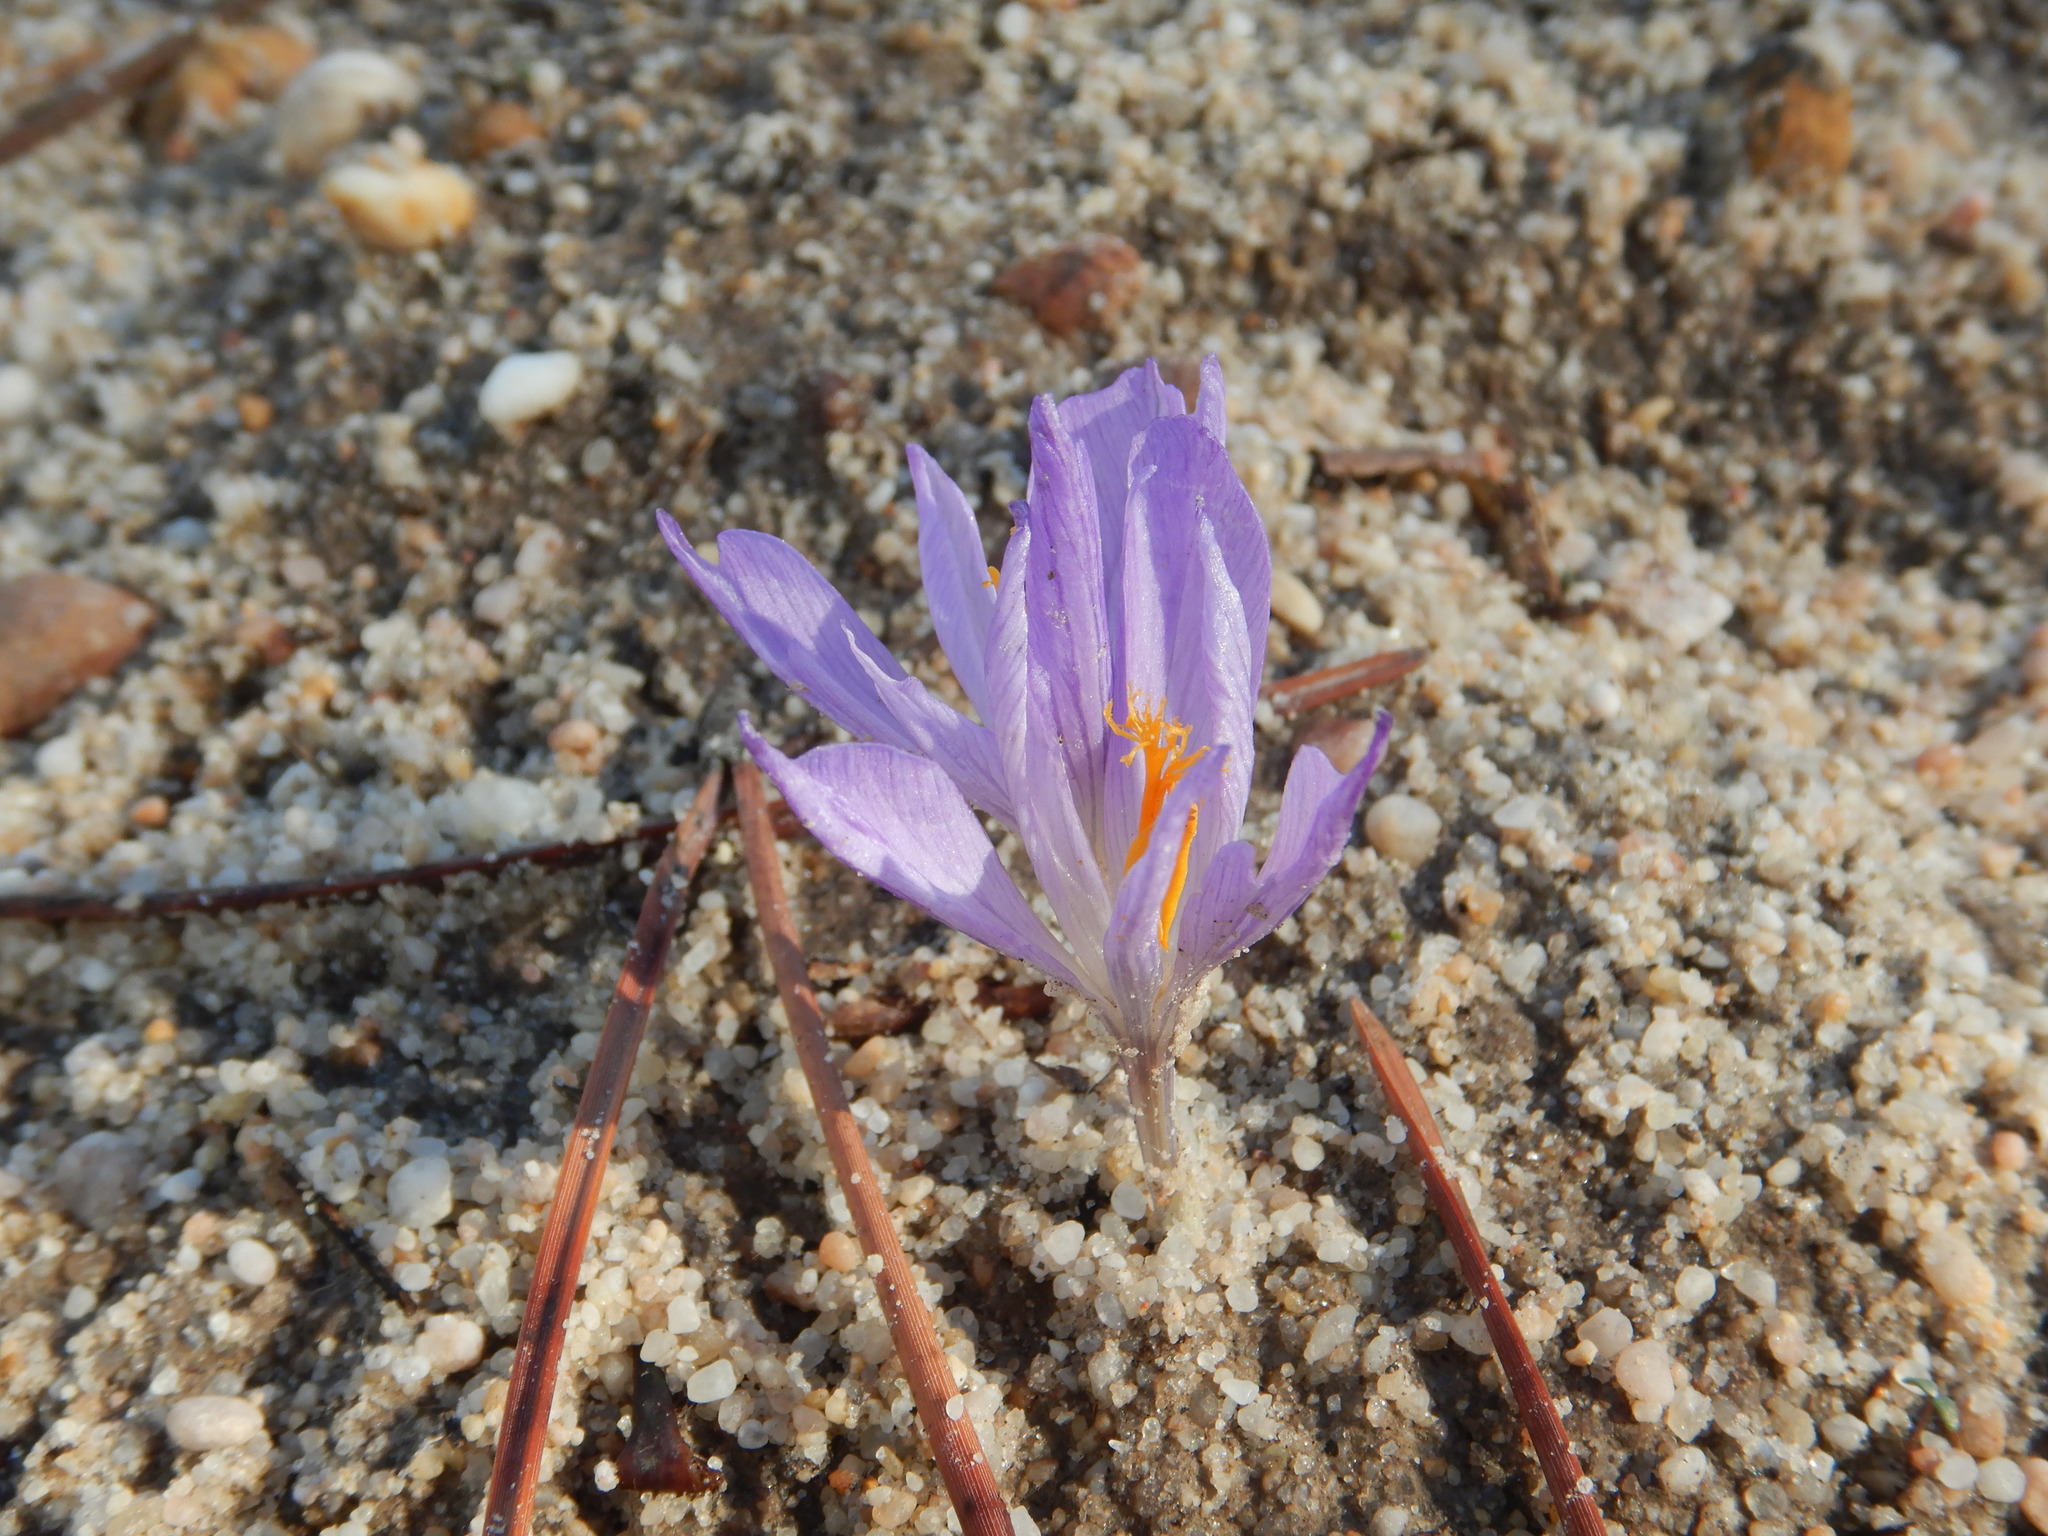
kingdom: Plantae
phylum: Tracheophyta
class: Liliopsida
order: Asparagales
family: Iridaceae
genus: Crocus
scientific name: Crocus serotinus
